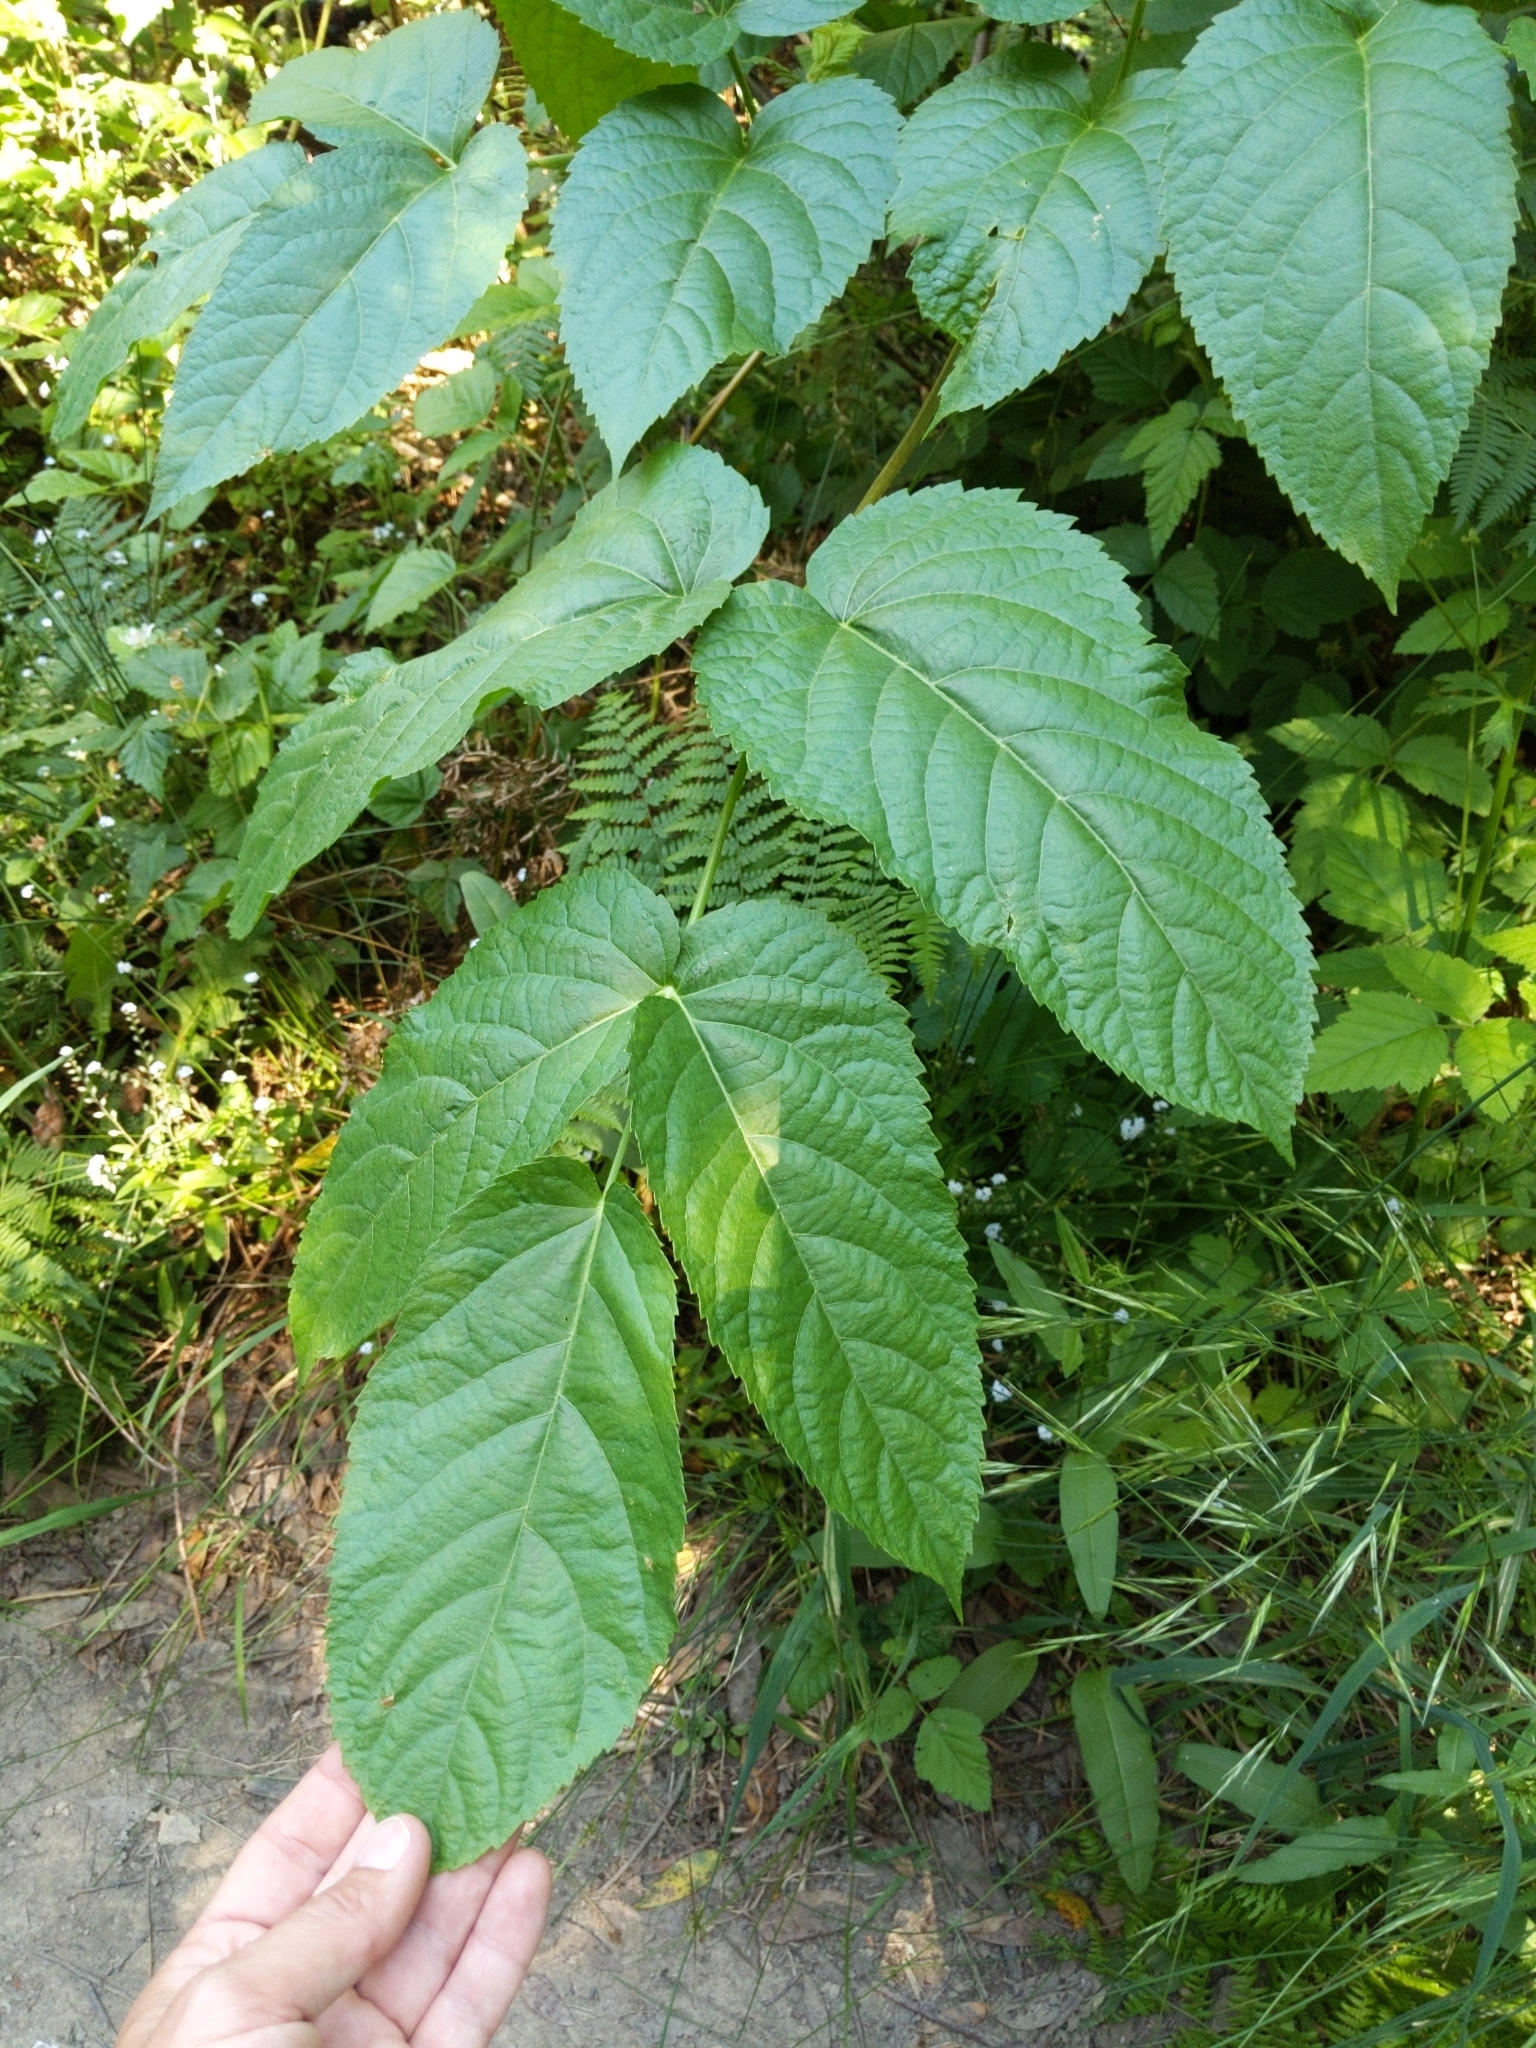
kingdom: Plantae
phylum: Tracheophyta
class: Magnoliopsida
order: Apiales
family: Araliaceae
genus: Aralia
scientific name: Aralia californica
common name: California-ginseng
